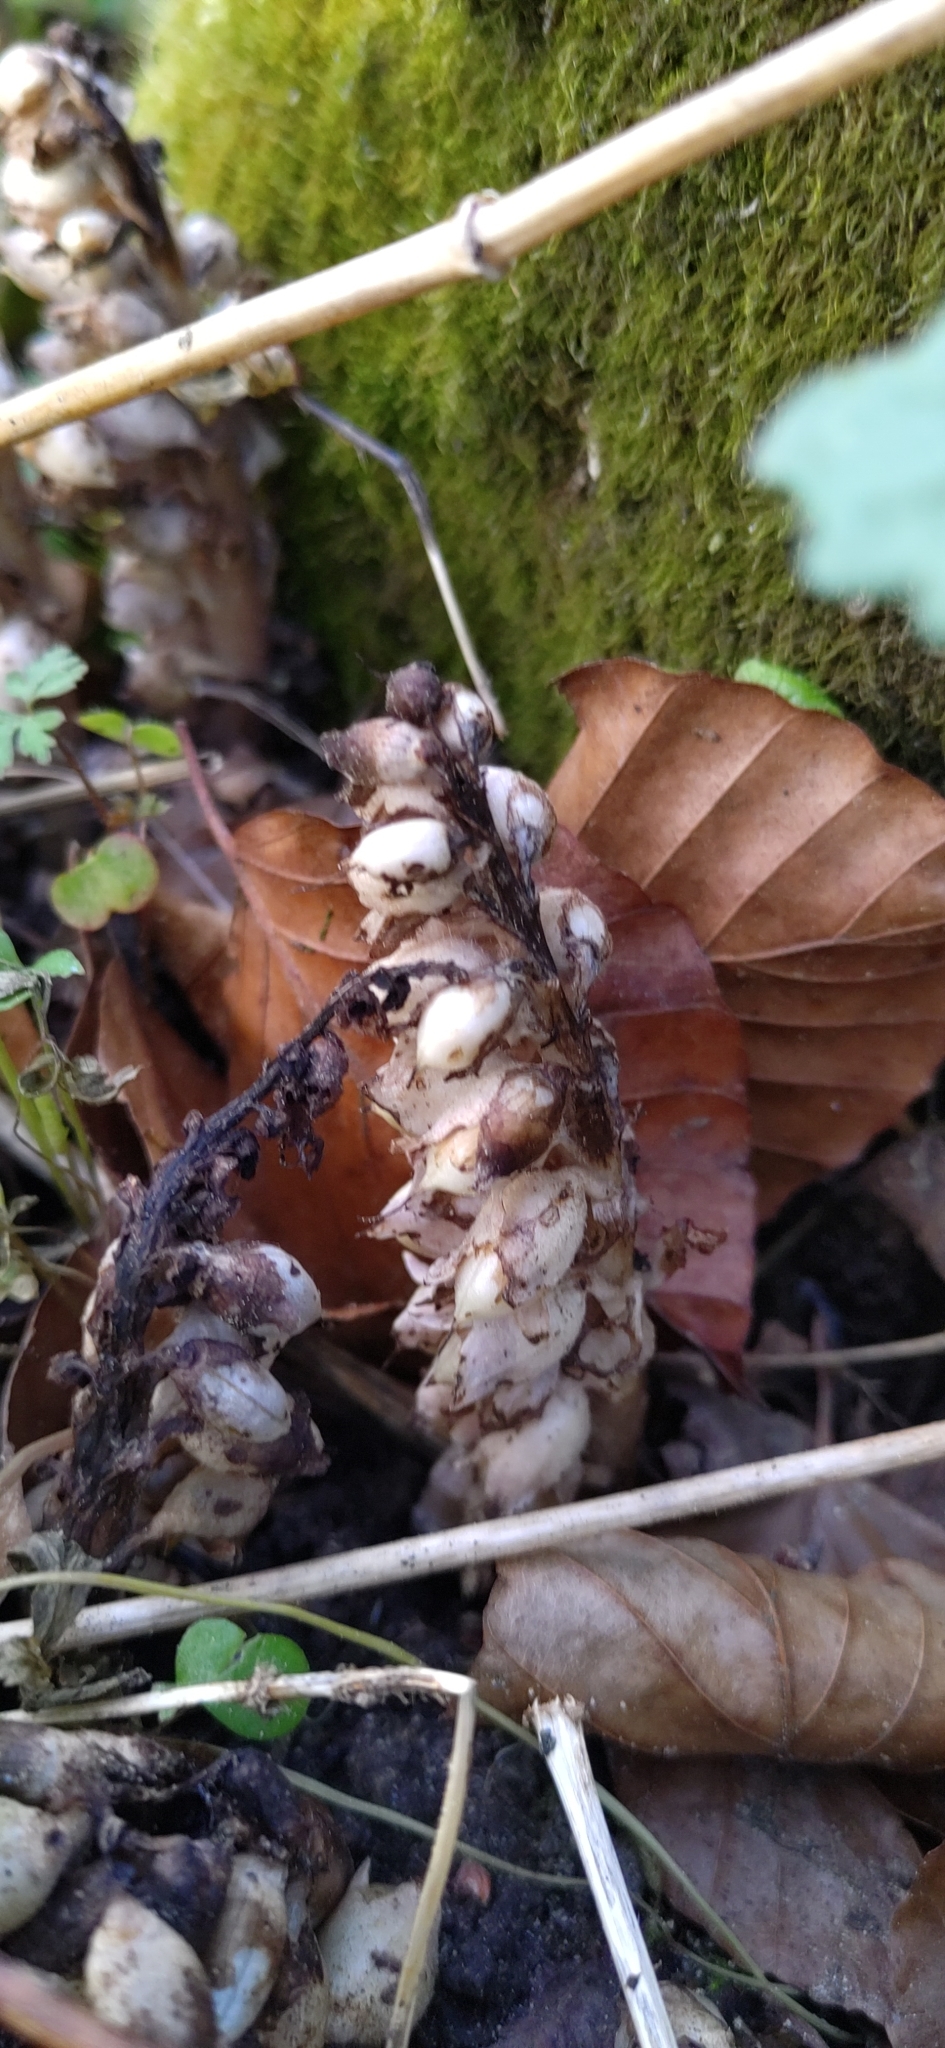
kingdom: Plantae
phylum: Tracheophyta
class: Magnoliopsida
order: Lamiales
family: Orobanchaceae
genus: Lathraea
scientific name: Lathraea squamaria
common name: Toothwort
